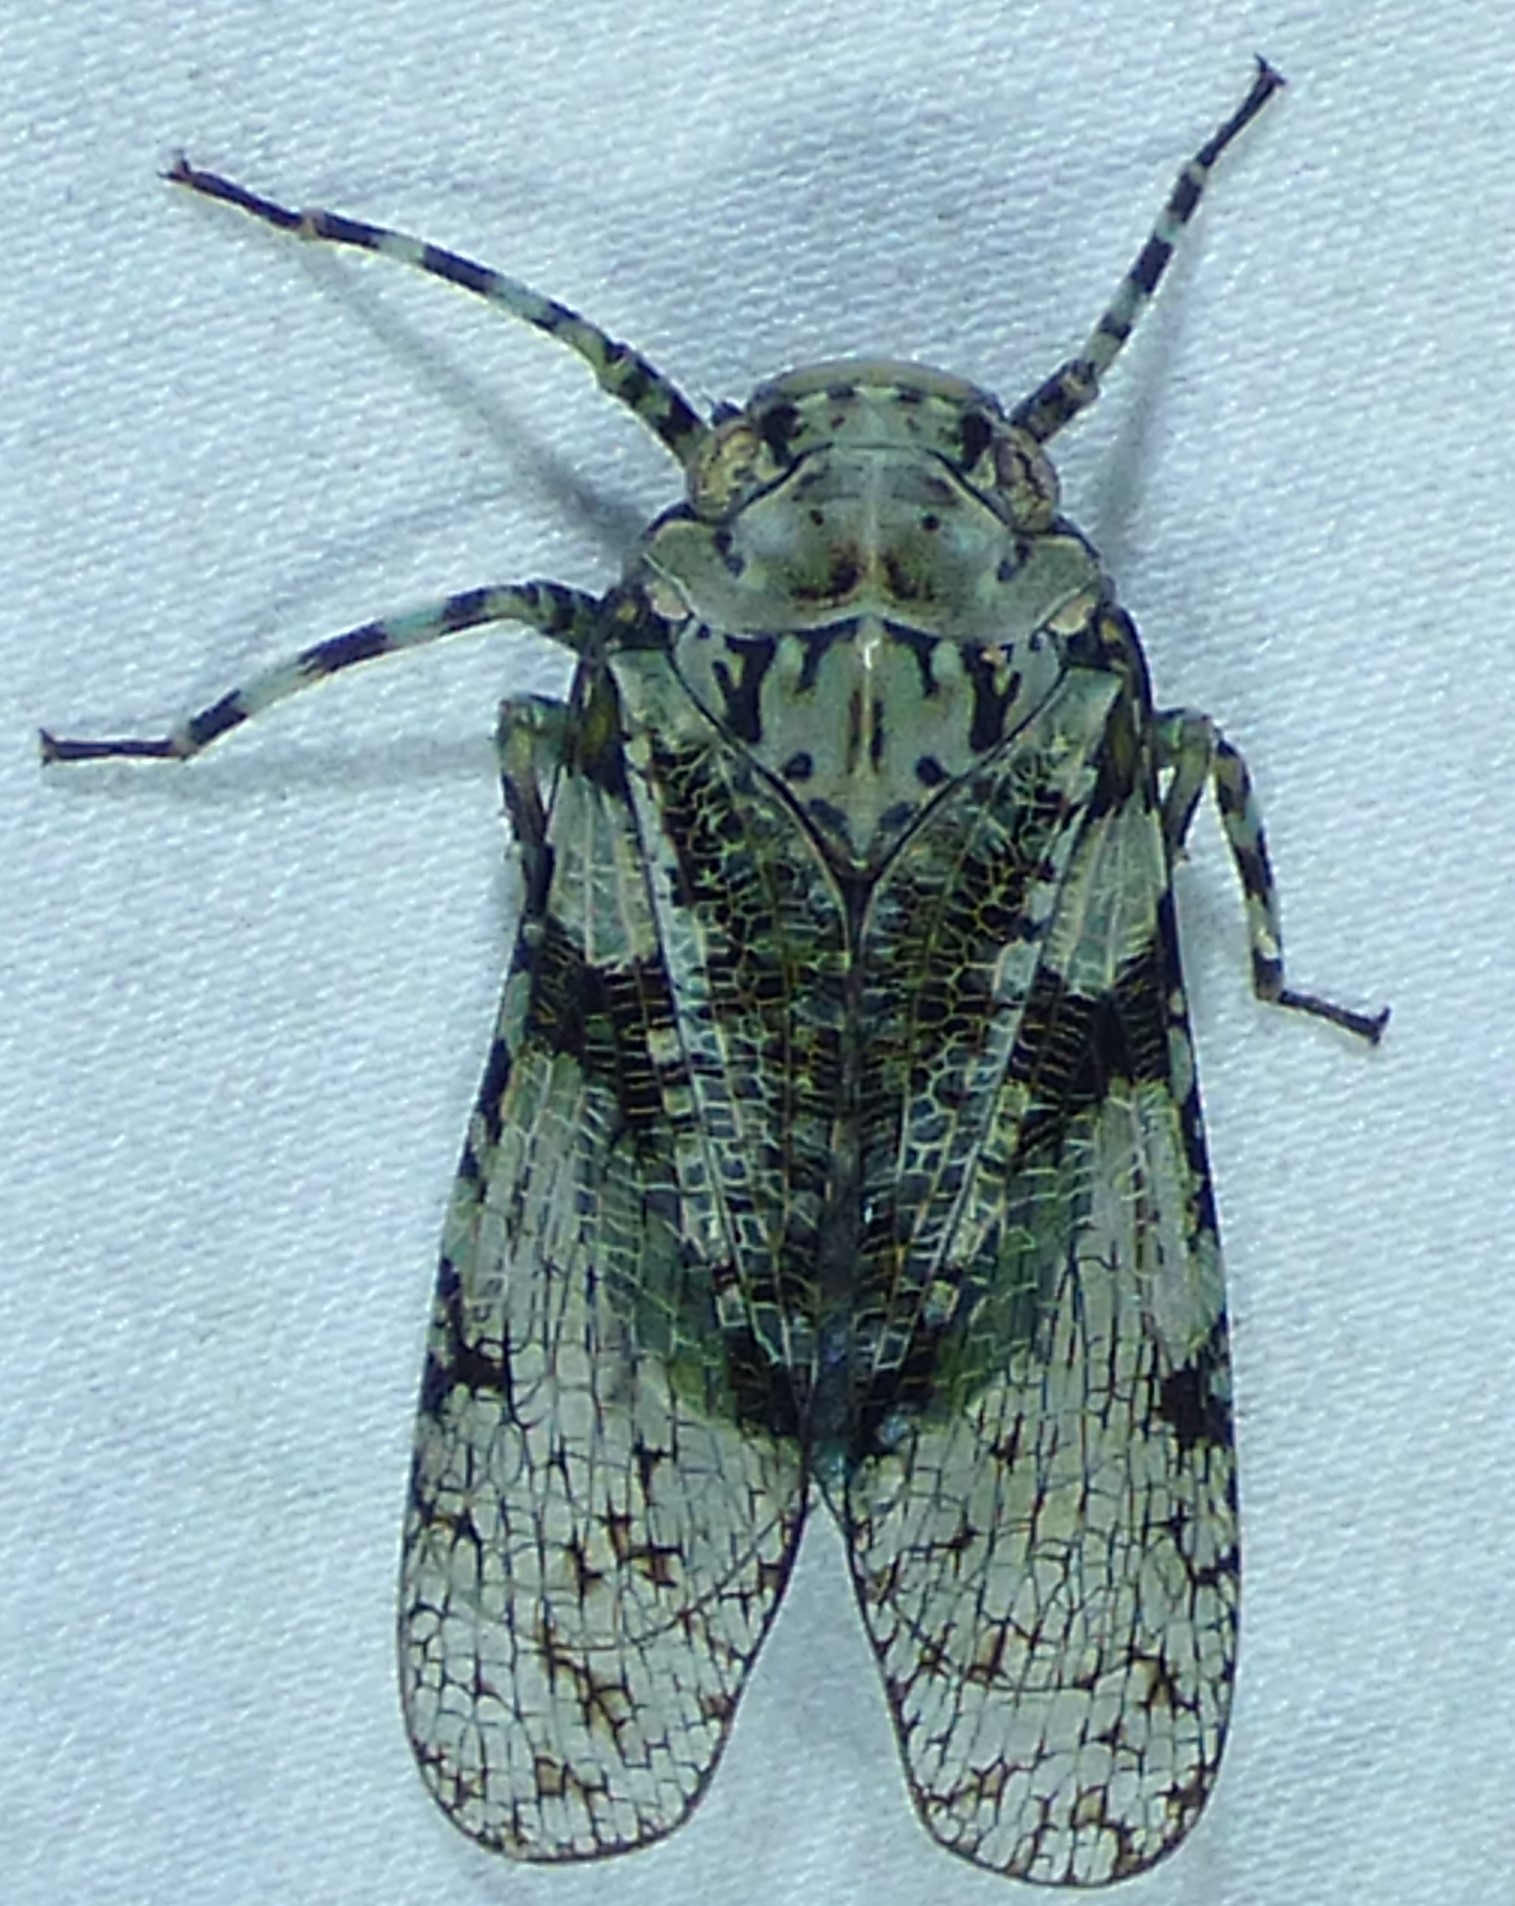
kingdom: Animalia
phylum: Arthropoda
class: Insecta
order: Hemiptera
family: Fulgoridae
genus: Calyptoproctus
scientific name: Calyptoproctus marmoratus
